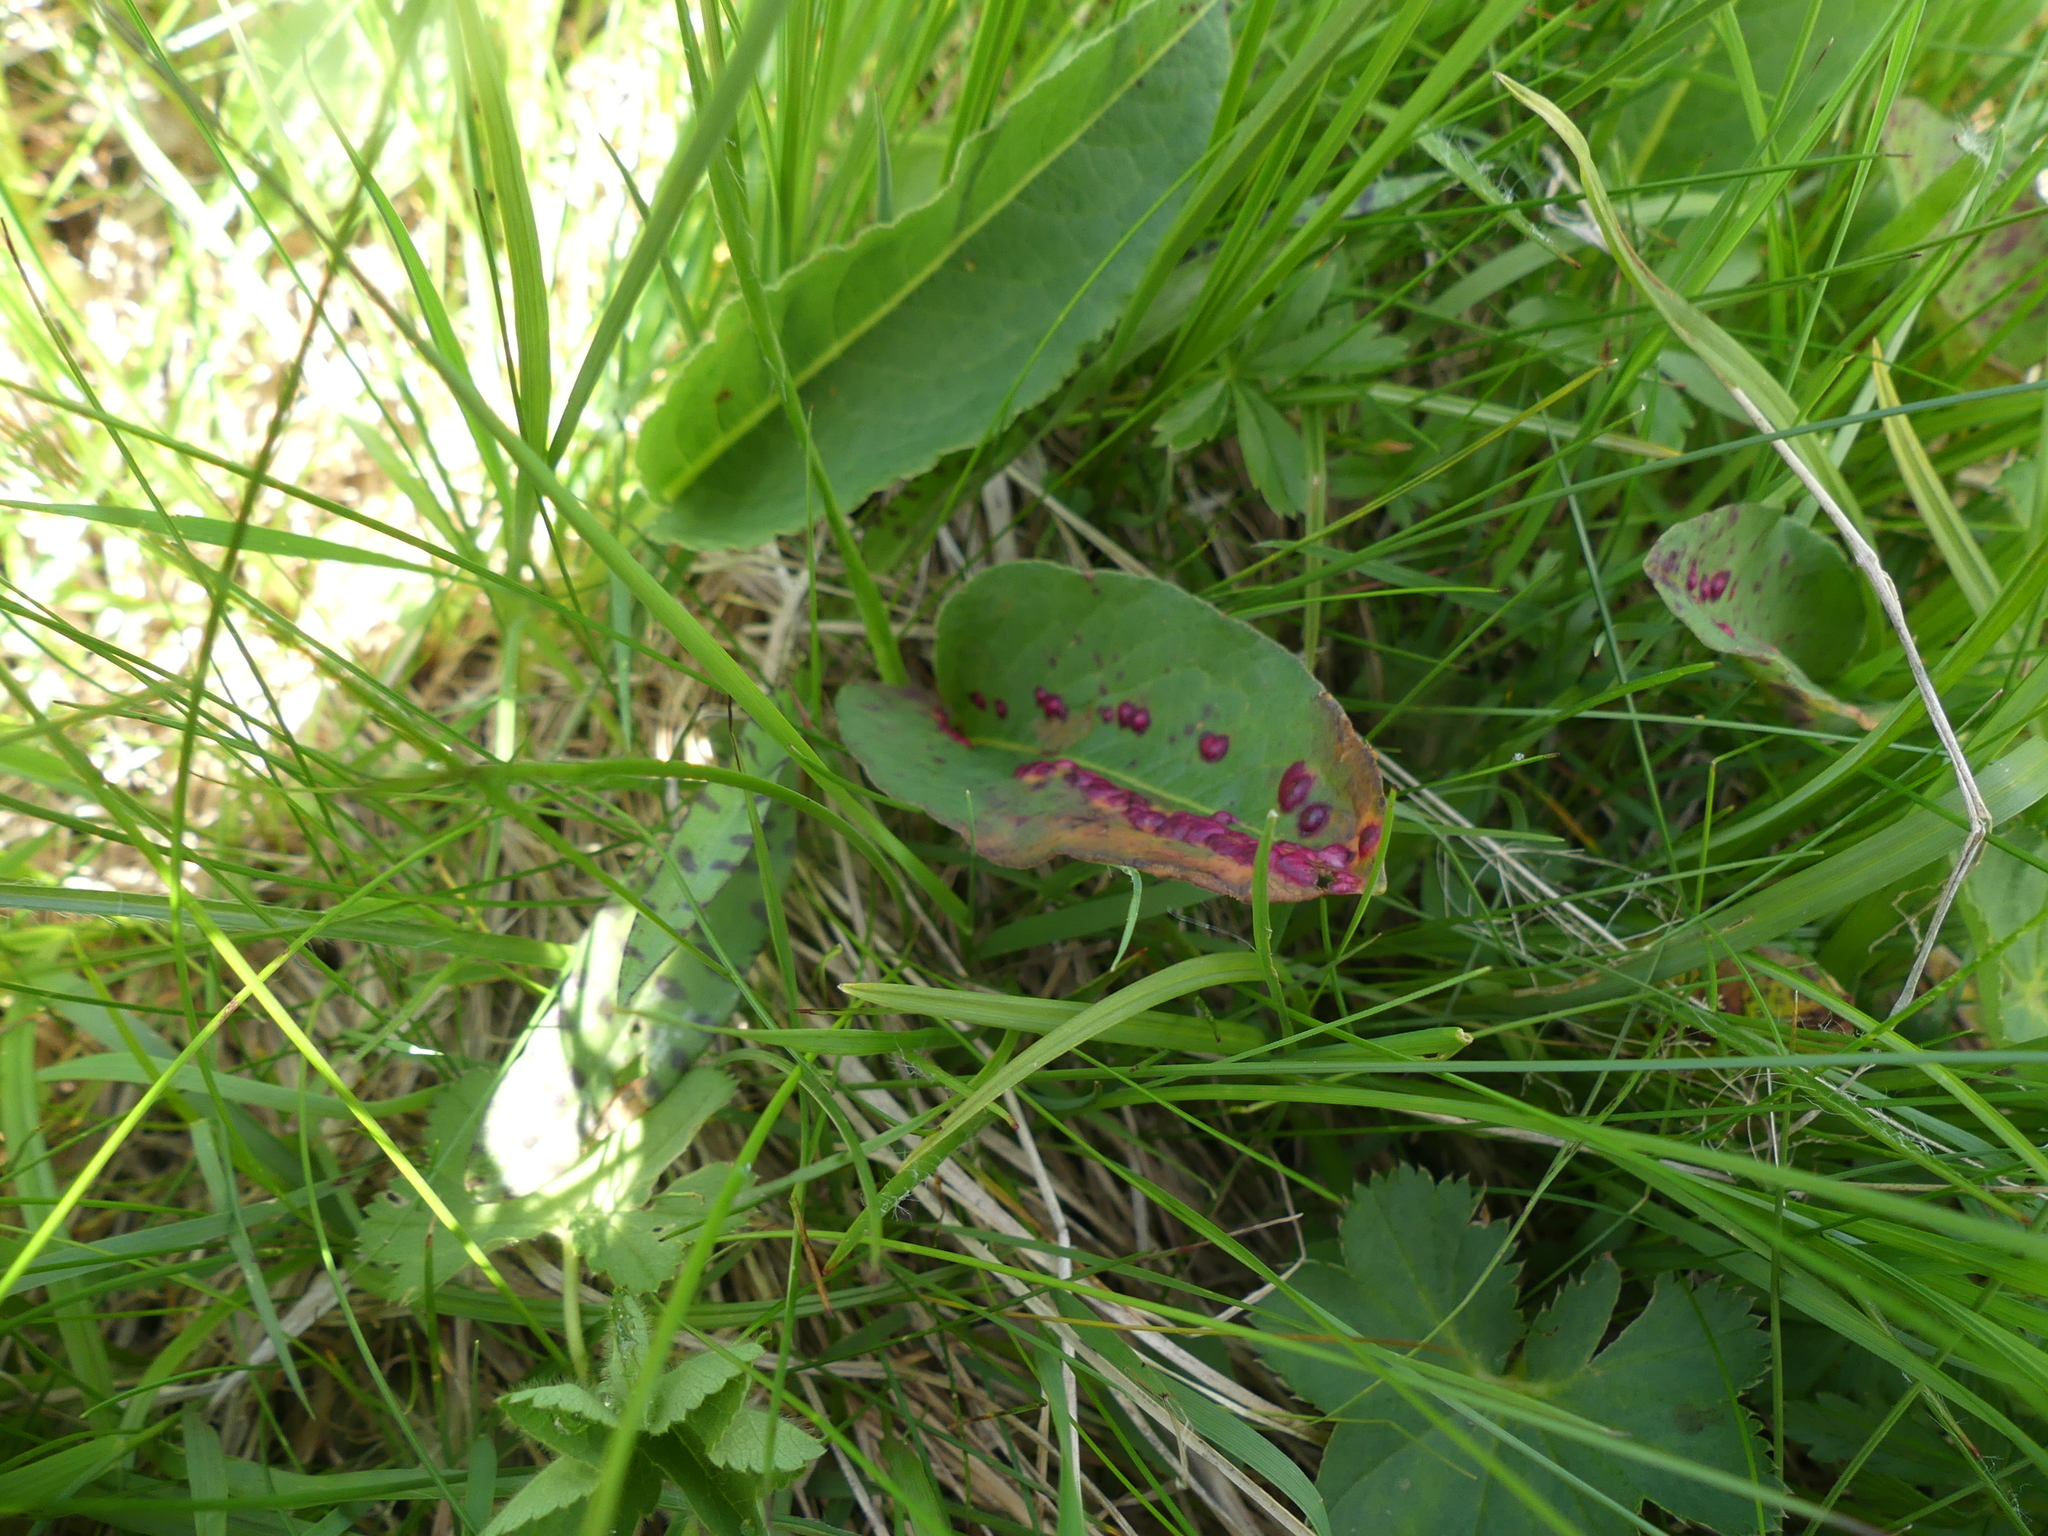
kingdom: Fungi
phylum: Basidiomycota
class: Microbotryomycetes
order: Microbotryales
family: Microbotryaceae
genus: Microbotryum
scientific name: Microbotryum pustulatum
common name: Bistort blister
